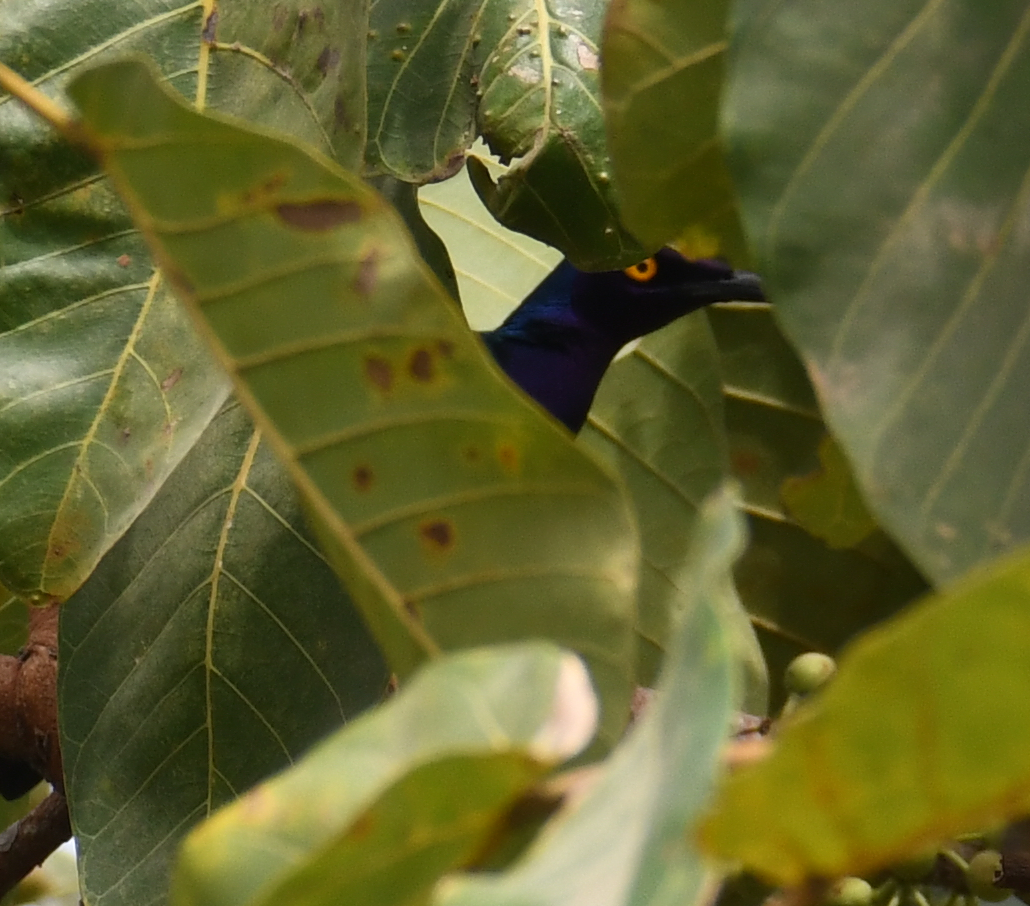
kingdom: Animalia
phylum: Chordata
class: Aves
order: Passeriformes
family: Sturnidae
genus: Lamprotornis
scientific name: Lamprotornis purpureus
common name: Purple starling
